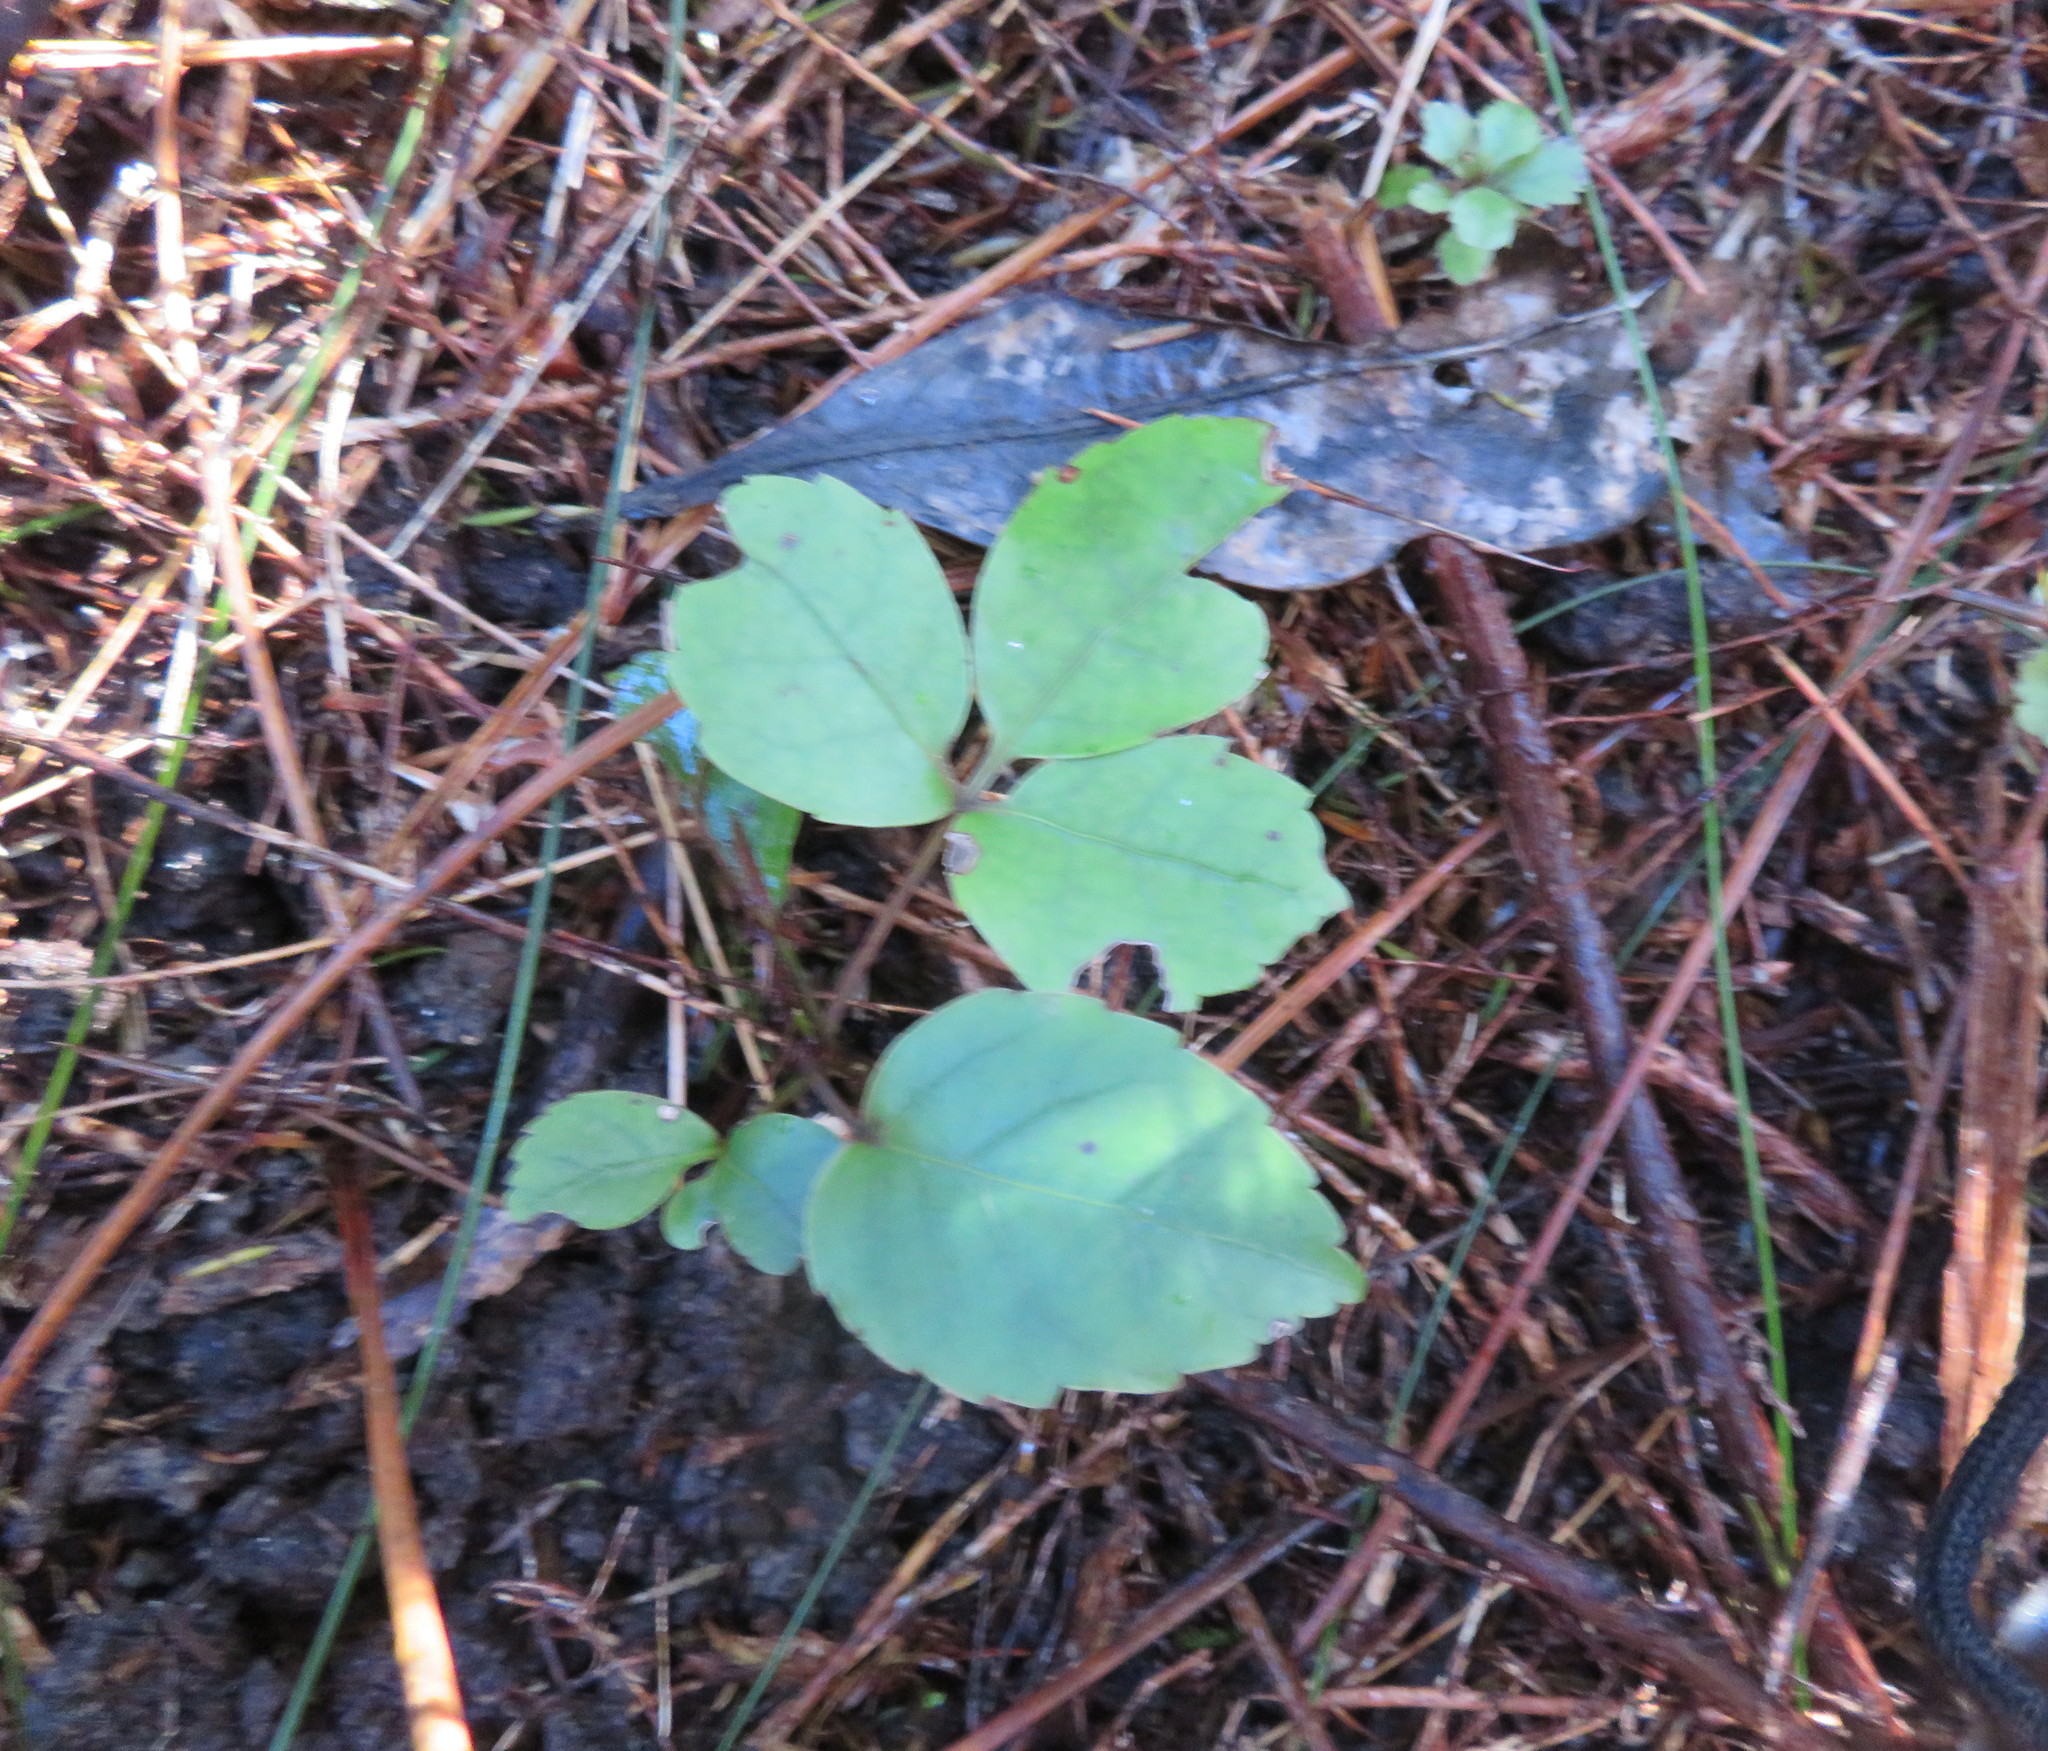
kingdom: Plantae
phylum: Tracheophyta
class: Magnoliopsida
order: Apiales
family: Araliaceae
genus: Neopanax
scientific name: Neopanax arboreus
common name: Five-fingers
